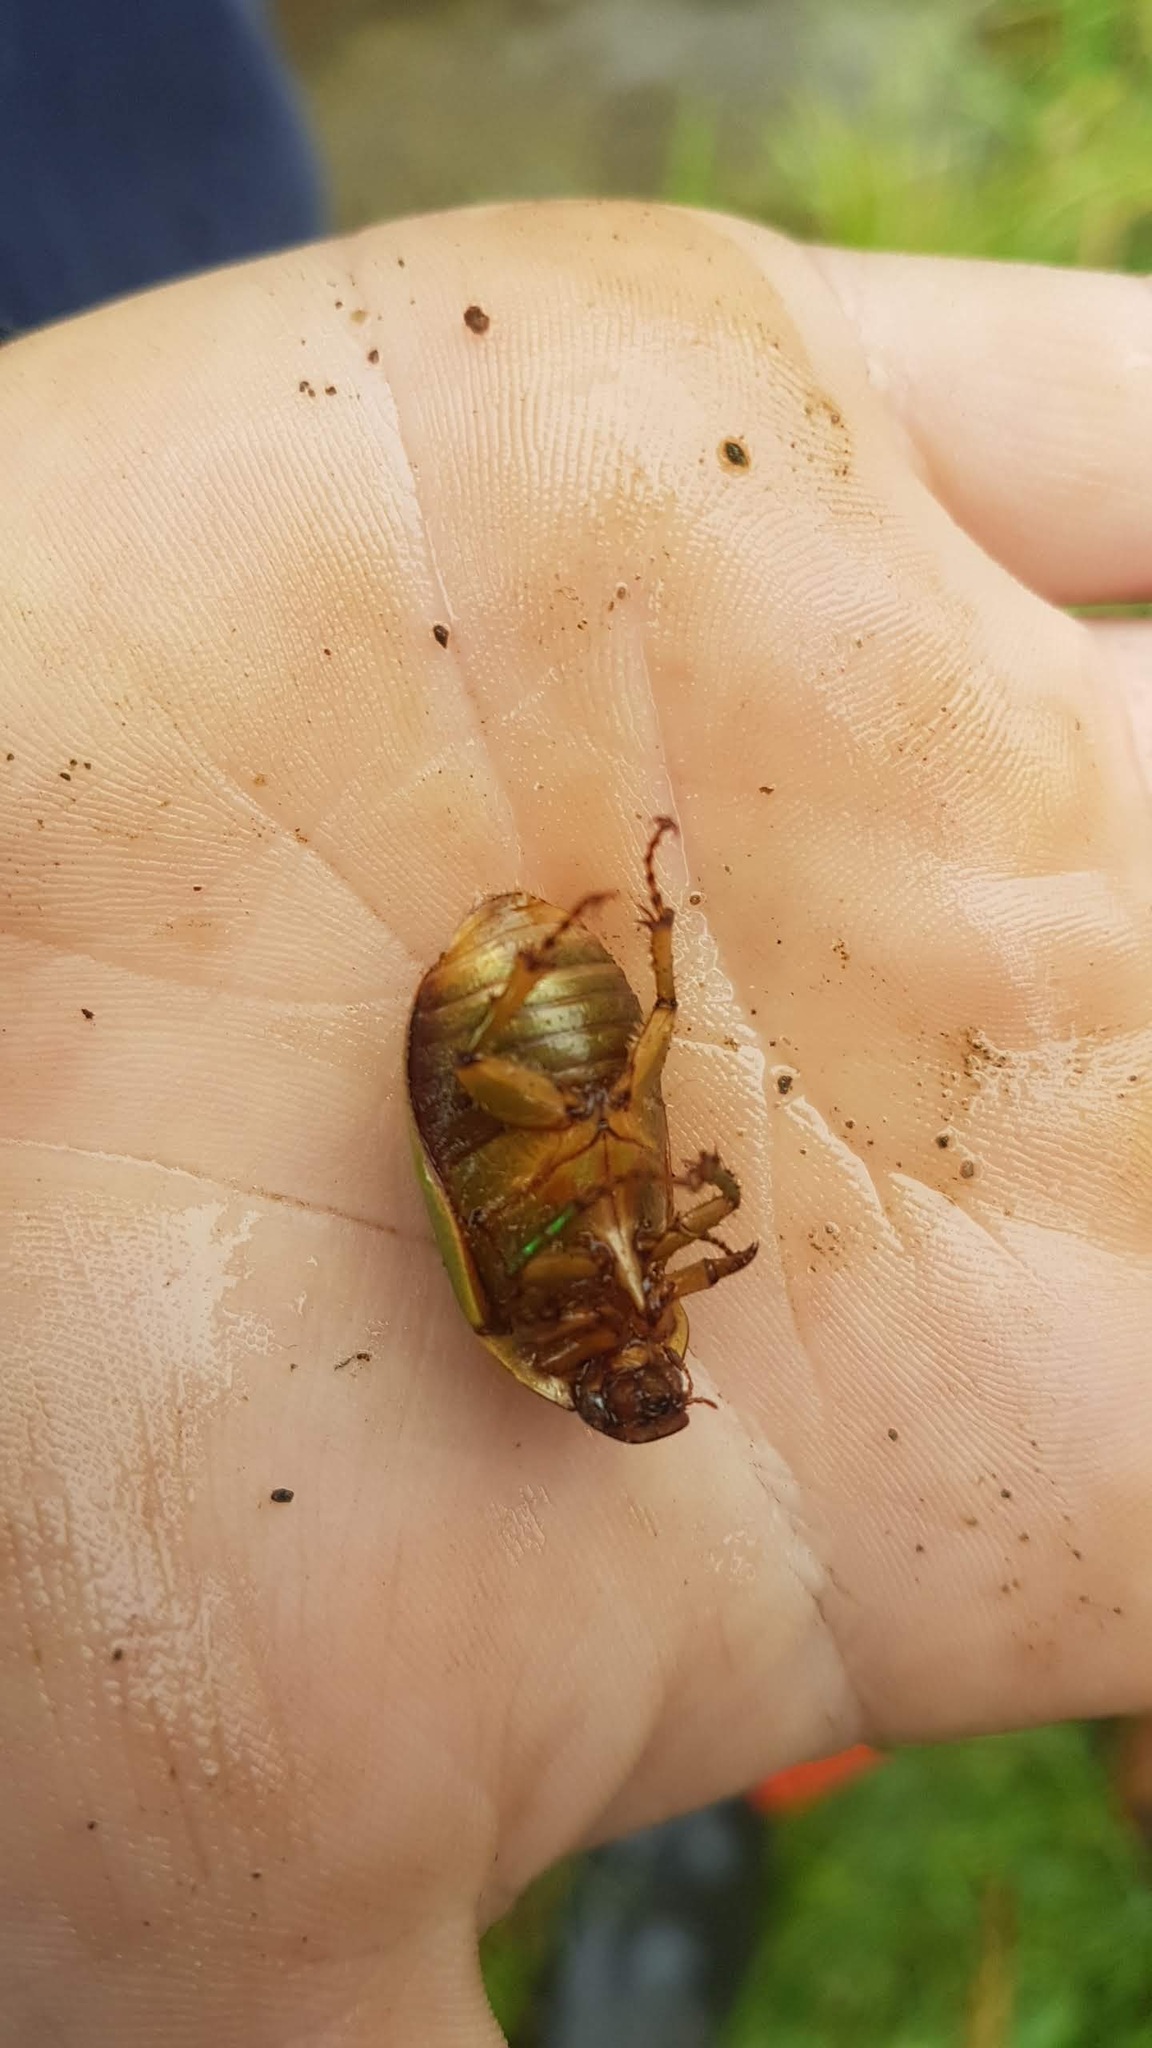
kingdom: Animalia
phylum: Arthropoda
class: Insecta
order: Coleoptera
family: Scarabaeidae
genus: Stethaspis
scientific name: Stethaspis longicornis
